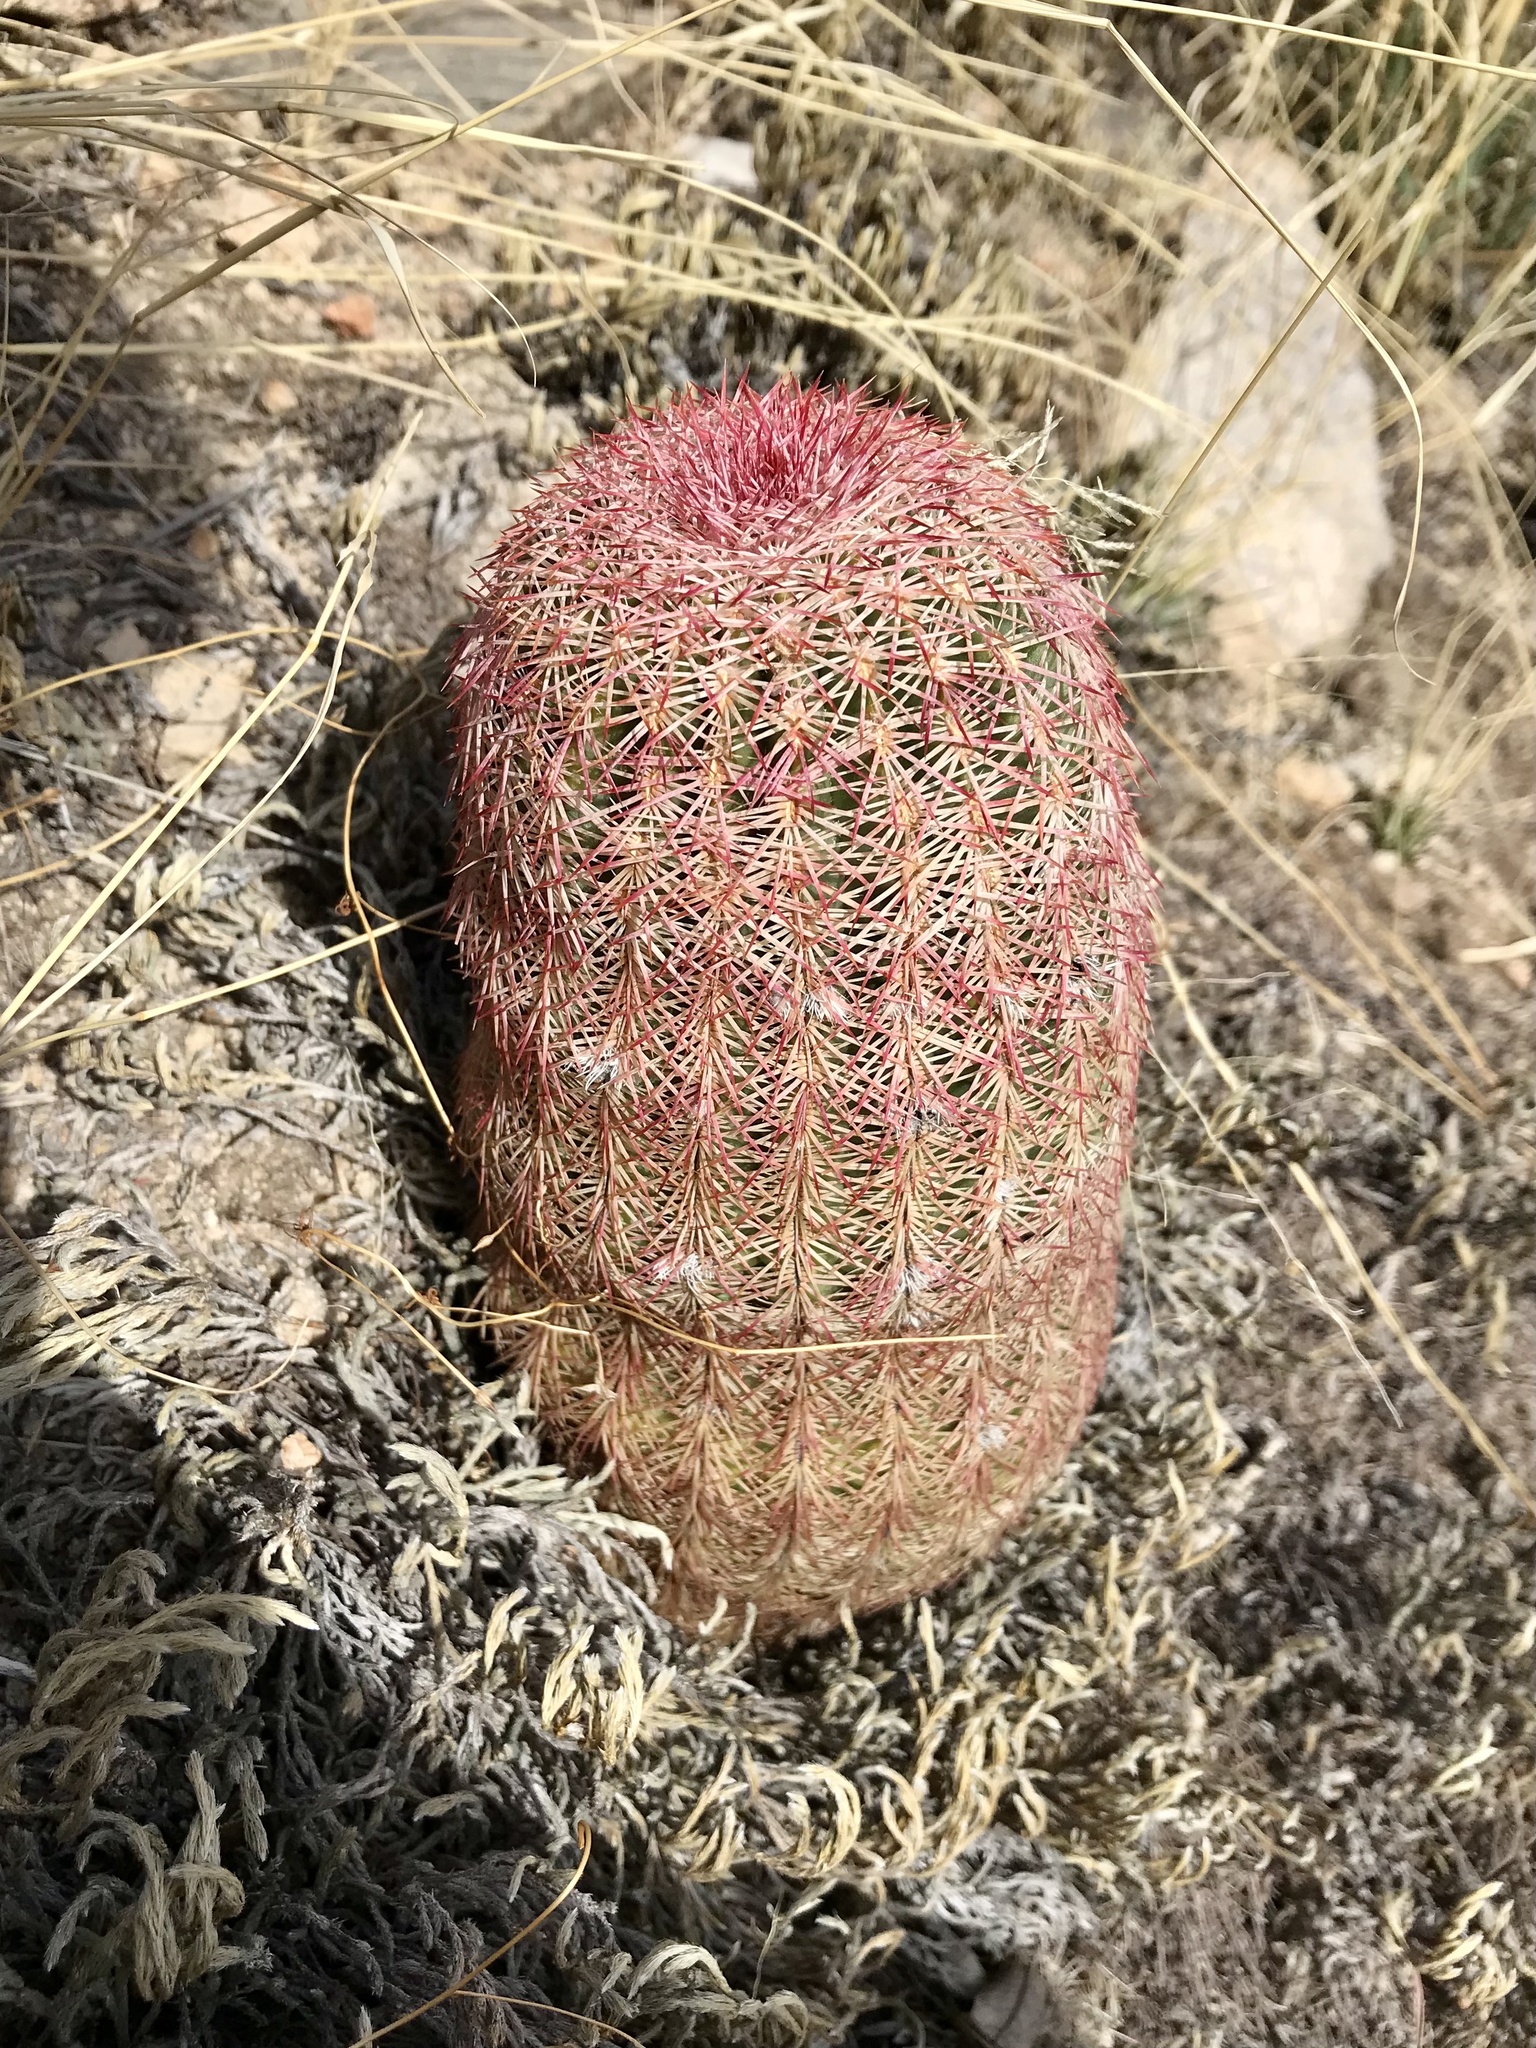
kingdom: Plantae
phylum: Tracheophyta
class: Magnoliopsida
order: Caryophyllales
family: Cactaceae
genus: Echinocereus
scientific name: Echinocereus rigidissimus
